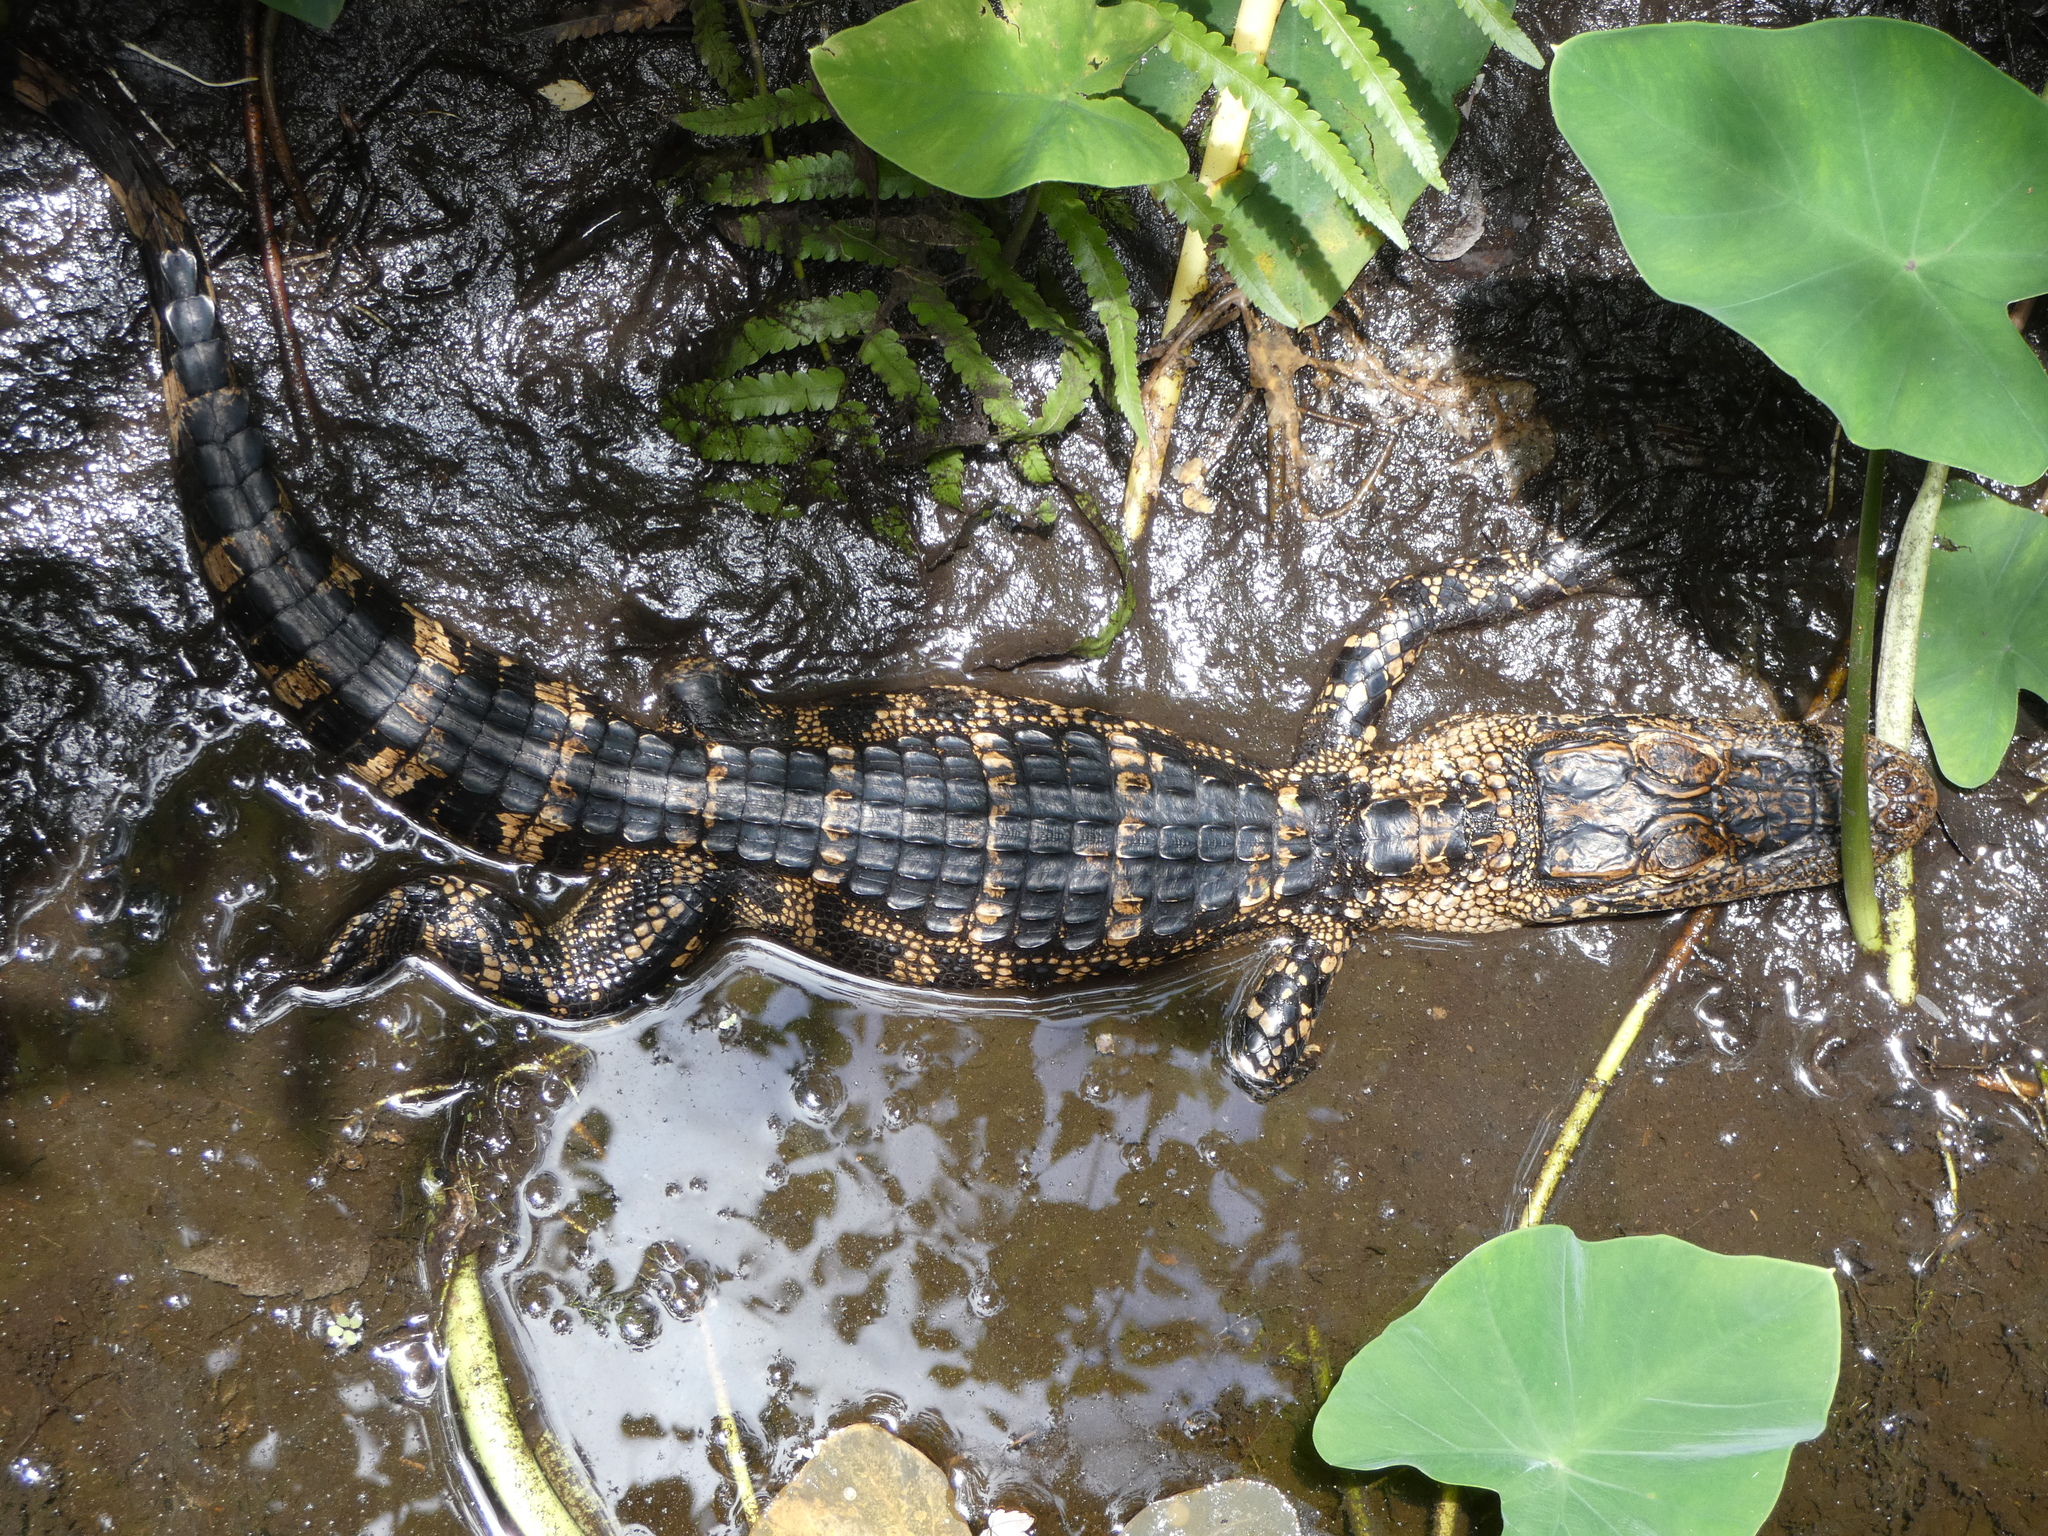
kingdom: Animalia
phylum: Chordata
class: Crocodylia
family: Alligatoridae
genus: Alligator
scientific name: Alligator mississippiensis
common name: American alligator
